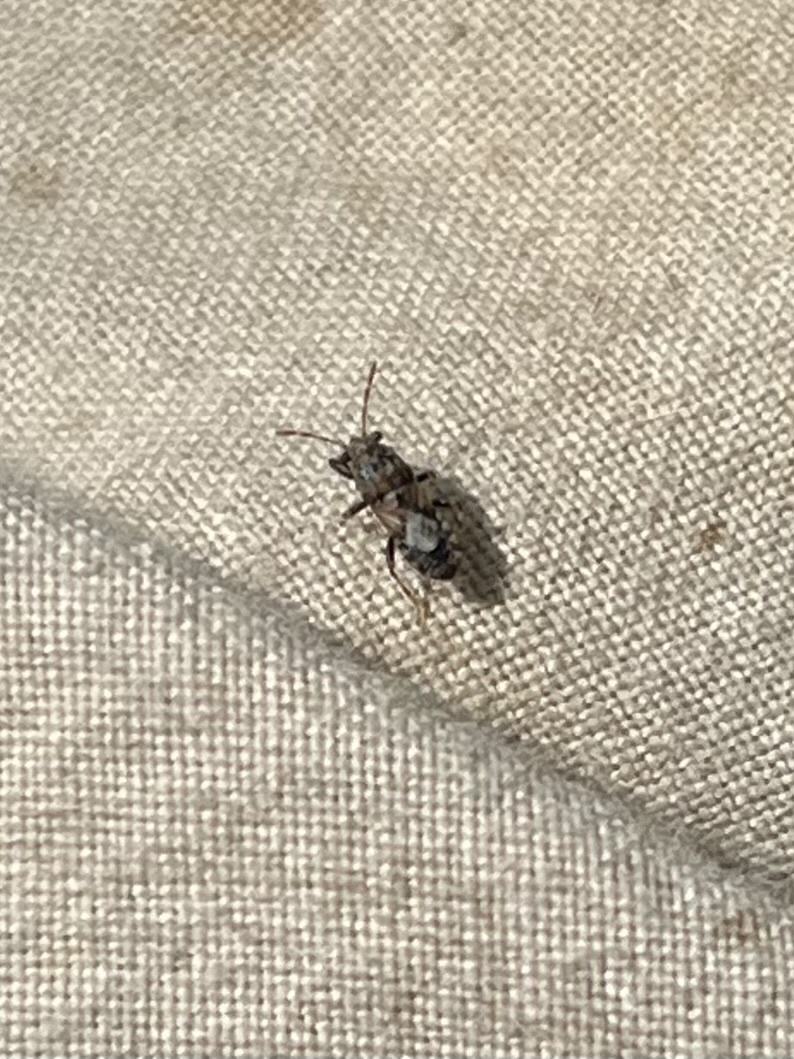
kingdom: Animalia
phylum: Arthropoda
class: Insecta
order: Hemiptera
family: Pachygronthidae
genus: Phlegyas
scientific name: Phlegyas abbreviatus
